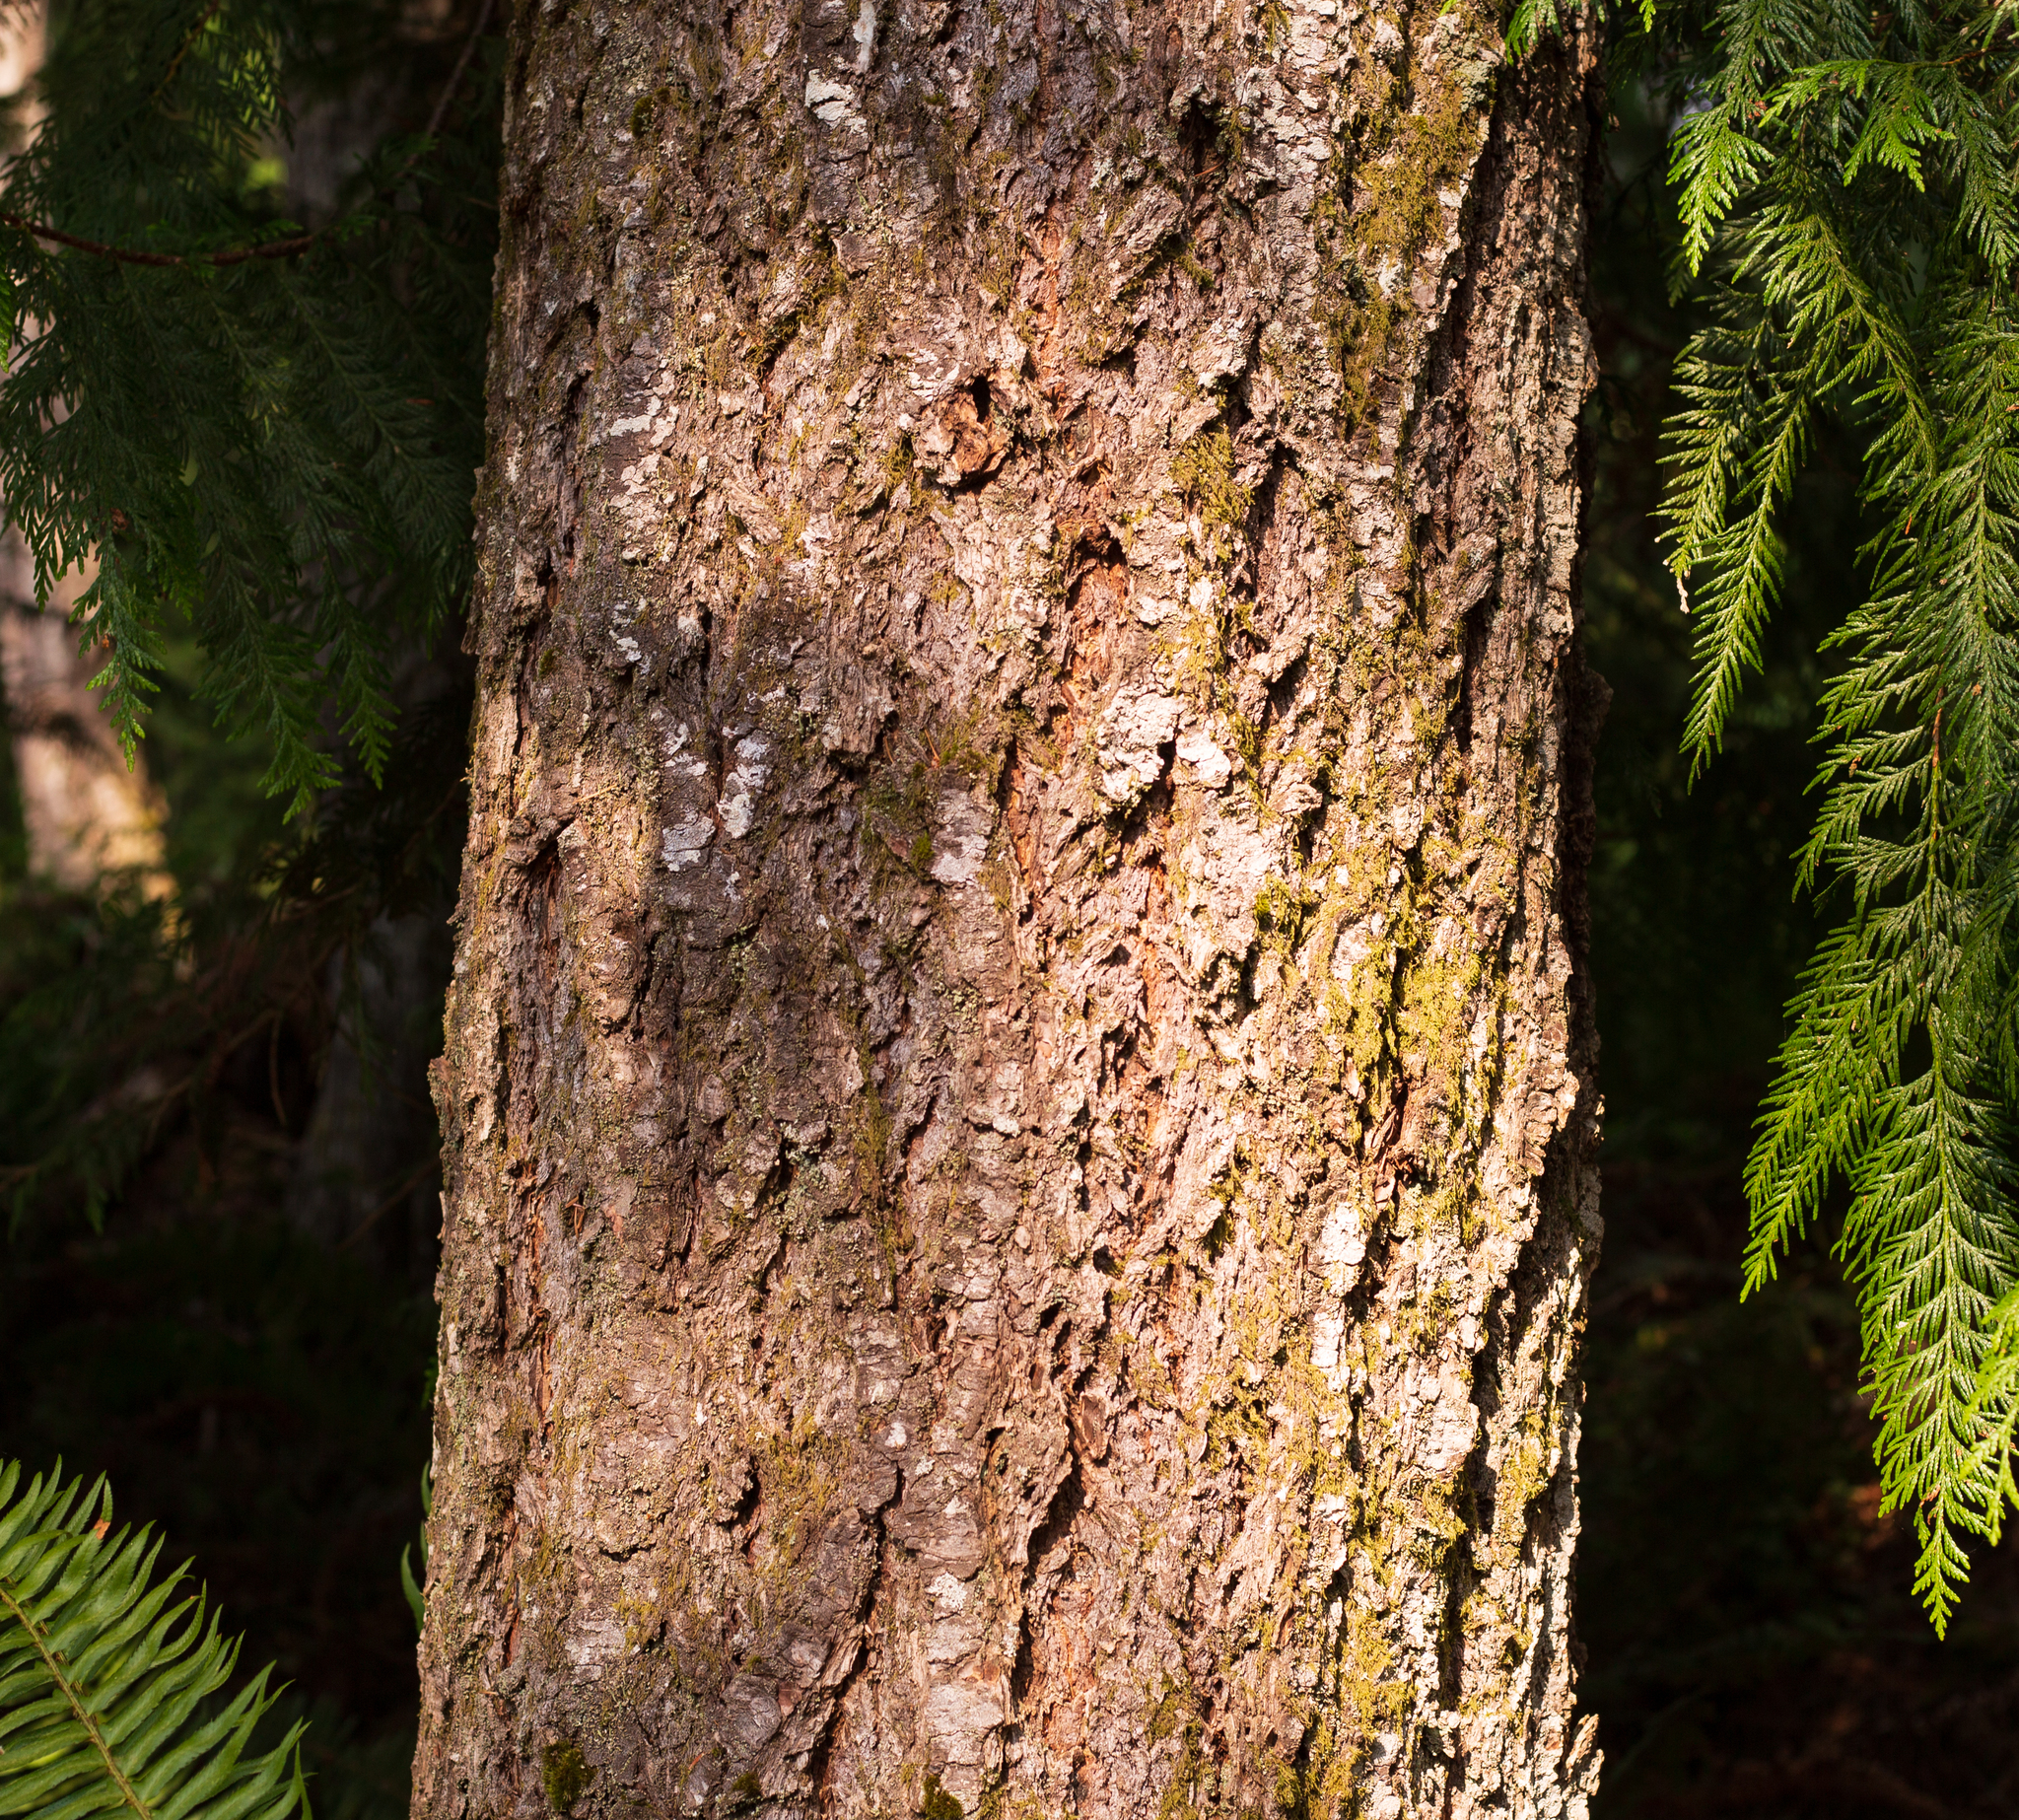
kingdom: Plantae
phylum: Tracheophyta
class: Pinopsida
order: Pinales
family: Pinaceae
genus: Pseudotsuga
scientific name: Pseudotsuga menziesii
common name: Douglas fir
